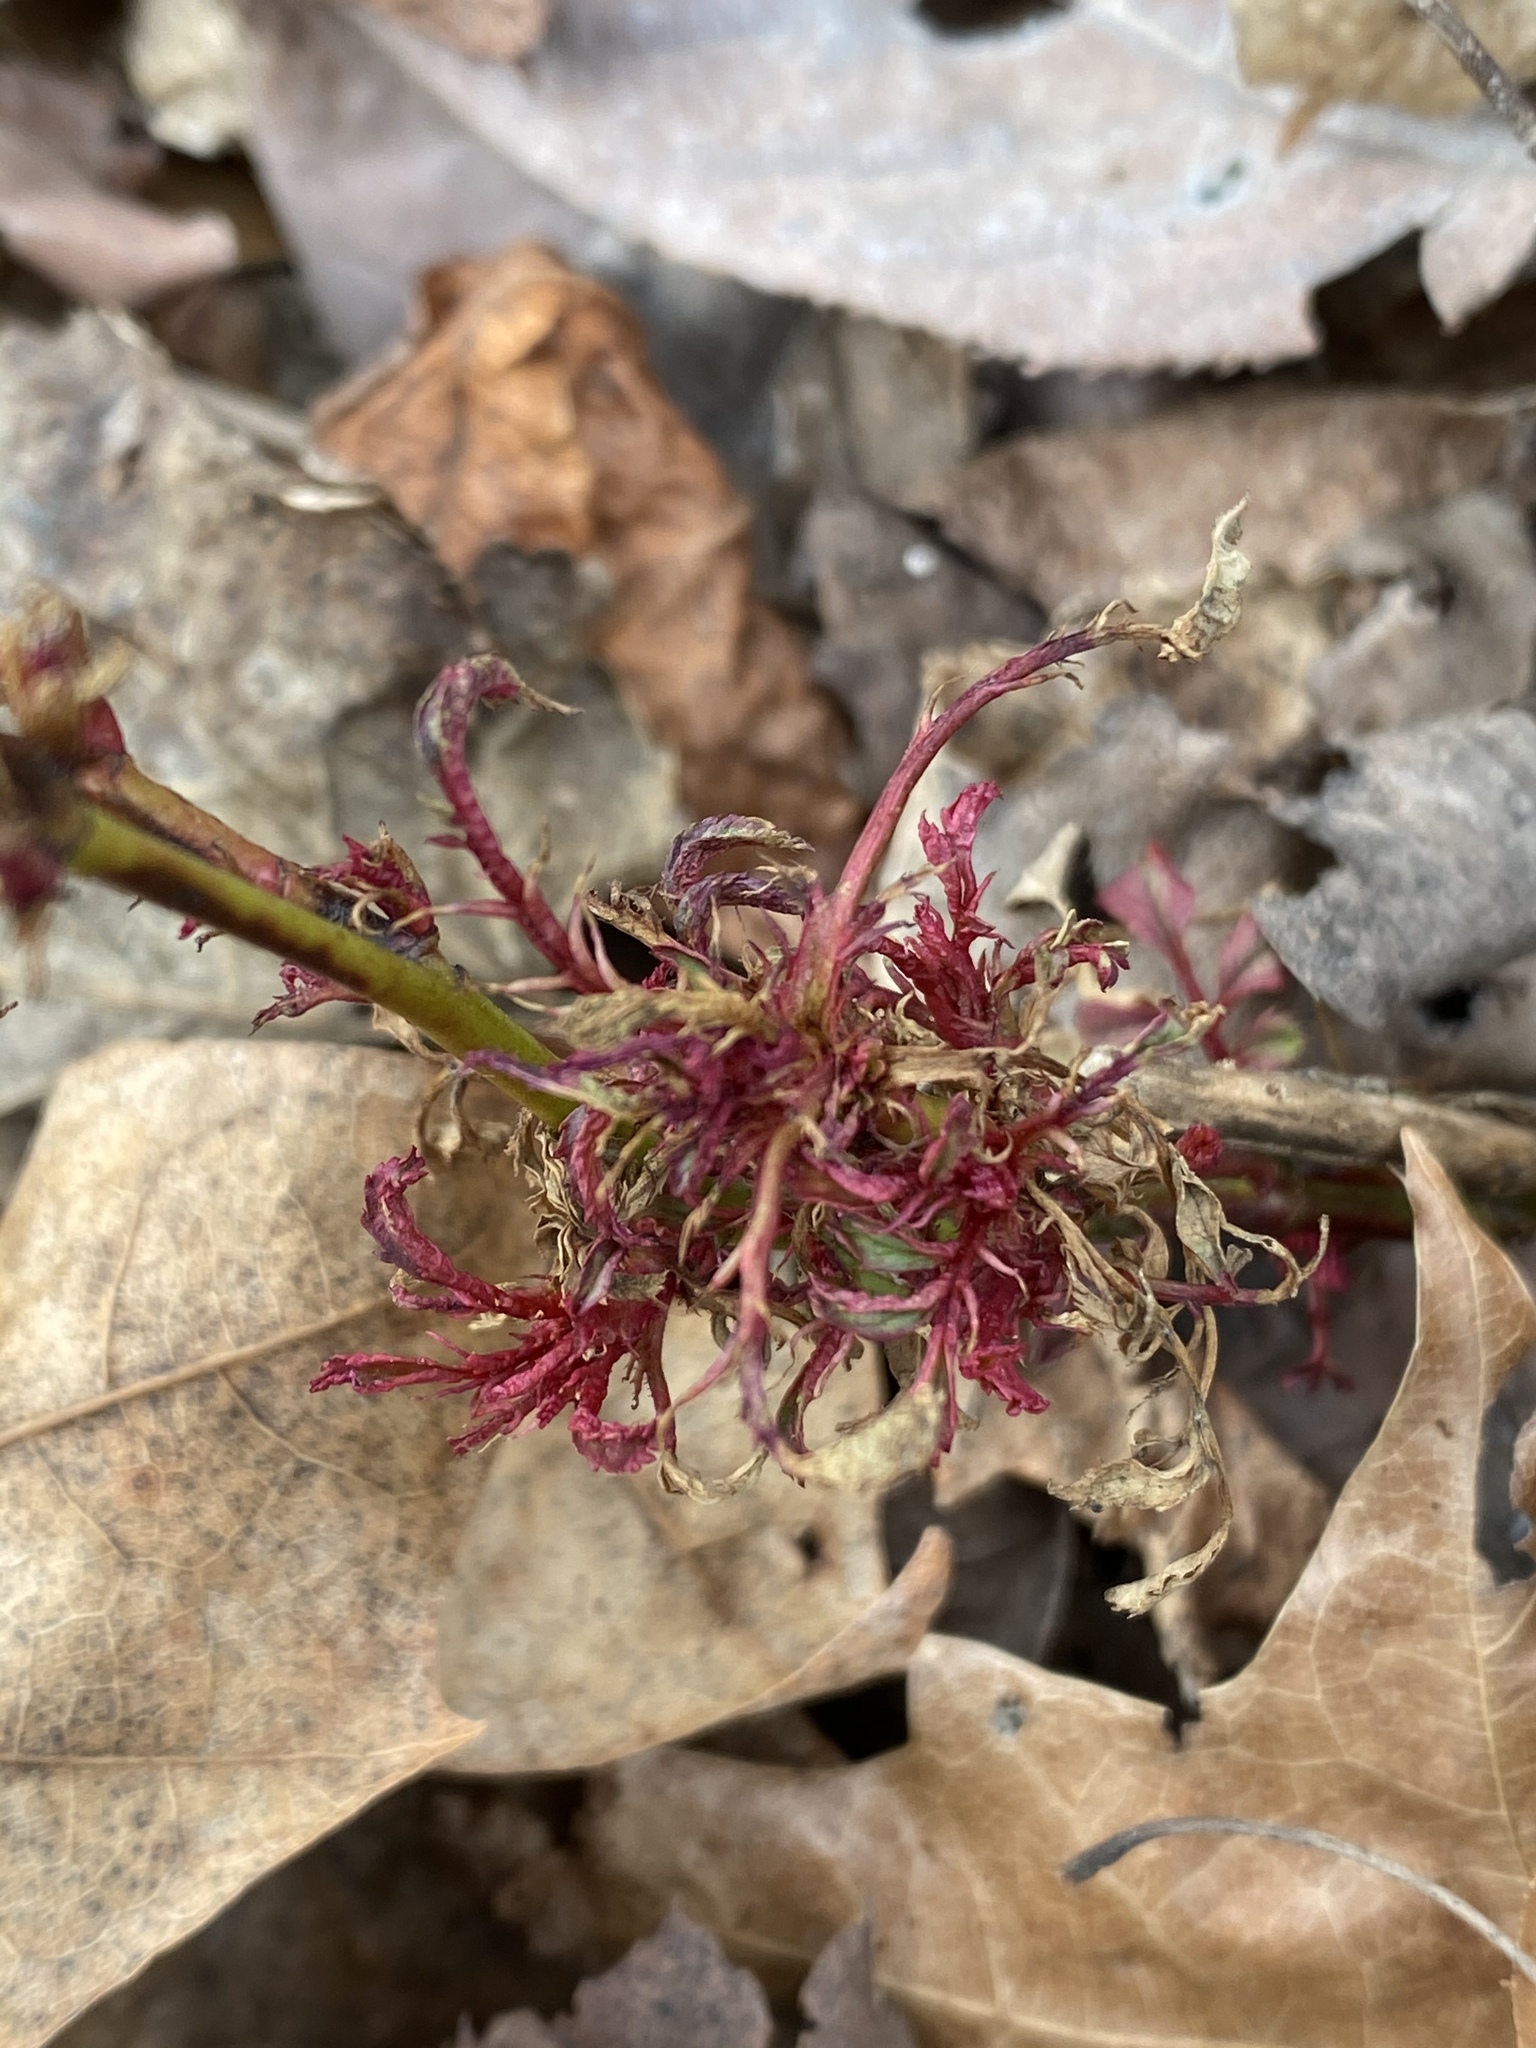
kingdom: Viruses
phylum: Negarnaviricota
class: Ellioviricetes
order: Bunyavirales
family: Fimoviridae
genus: Emaravirus
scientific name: Emaravirus rosae
